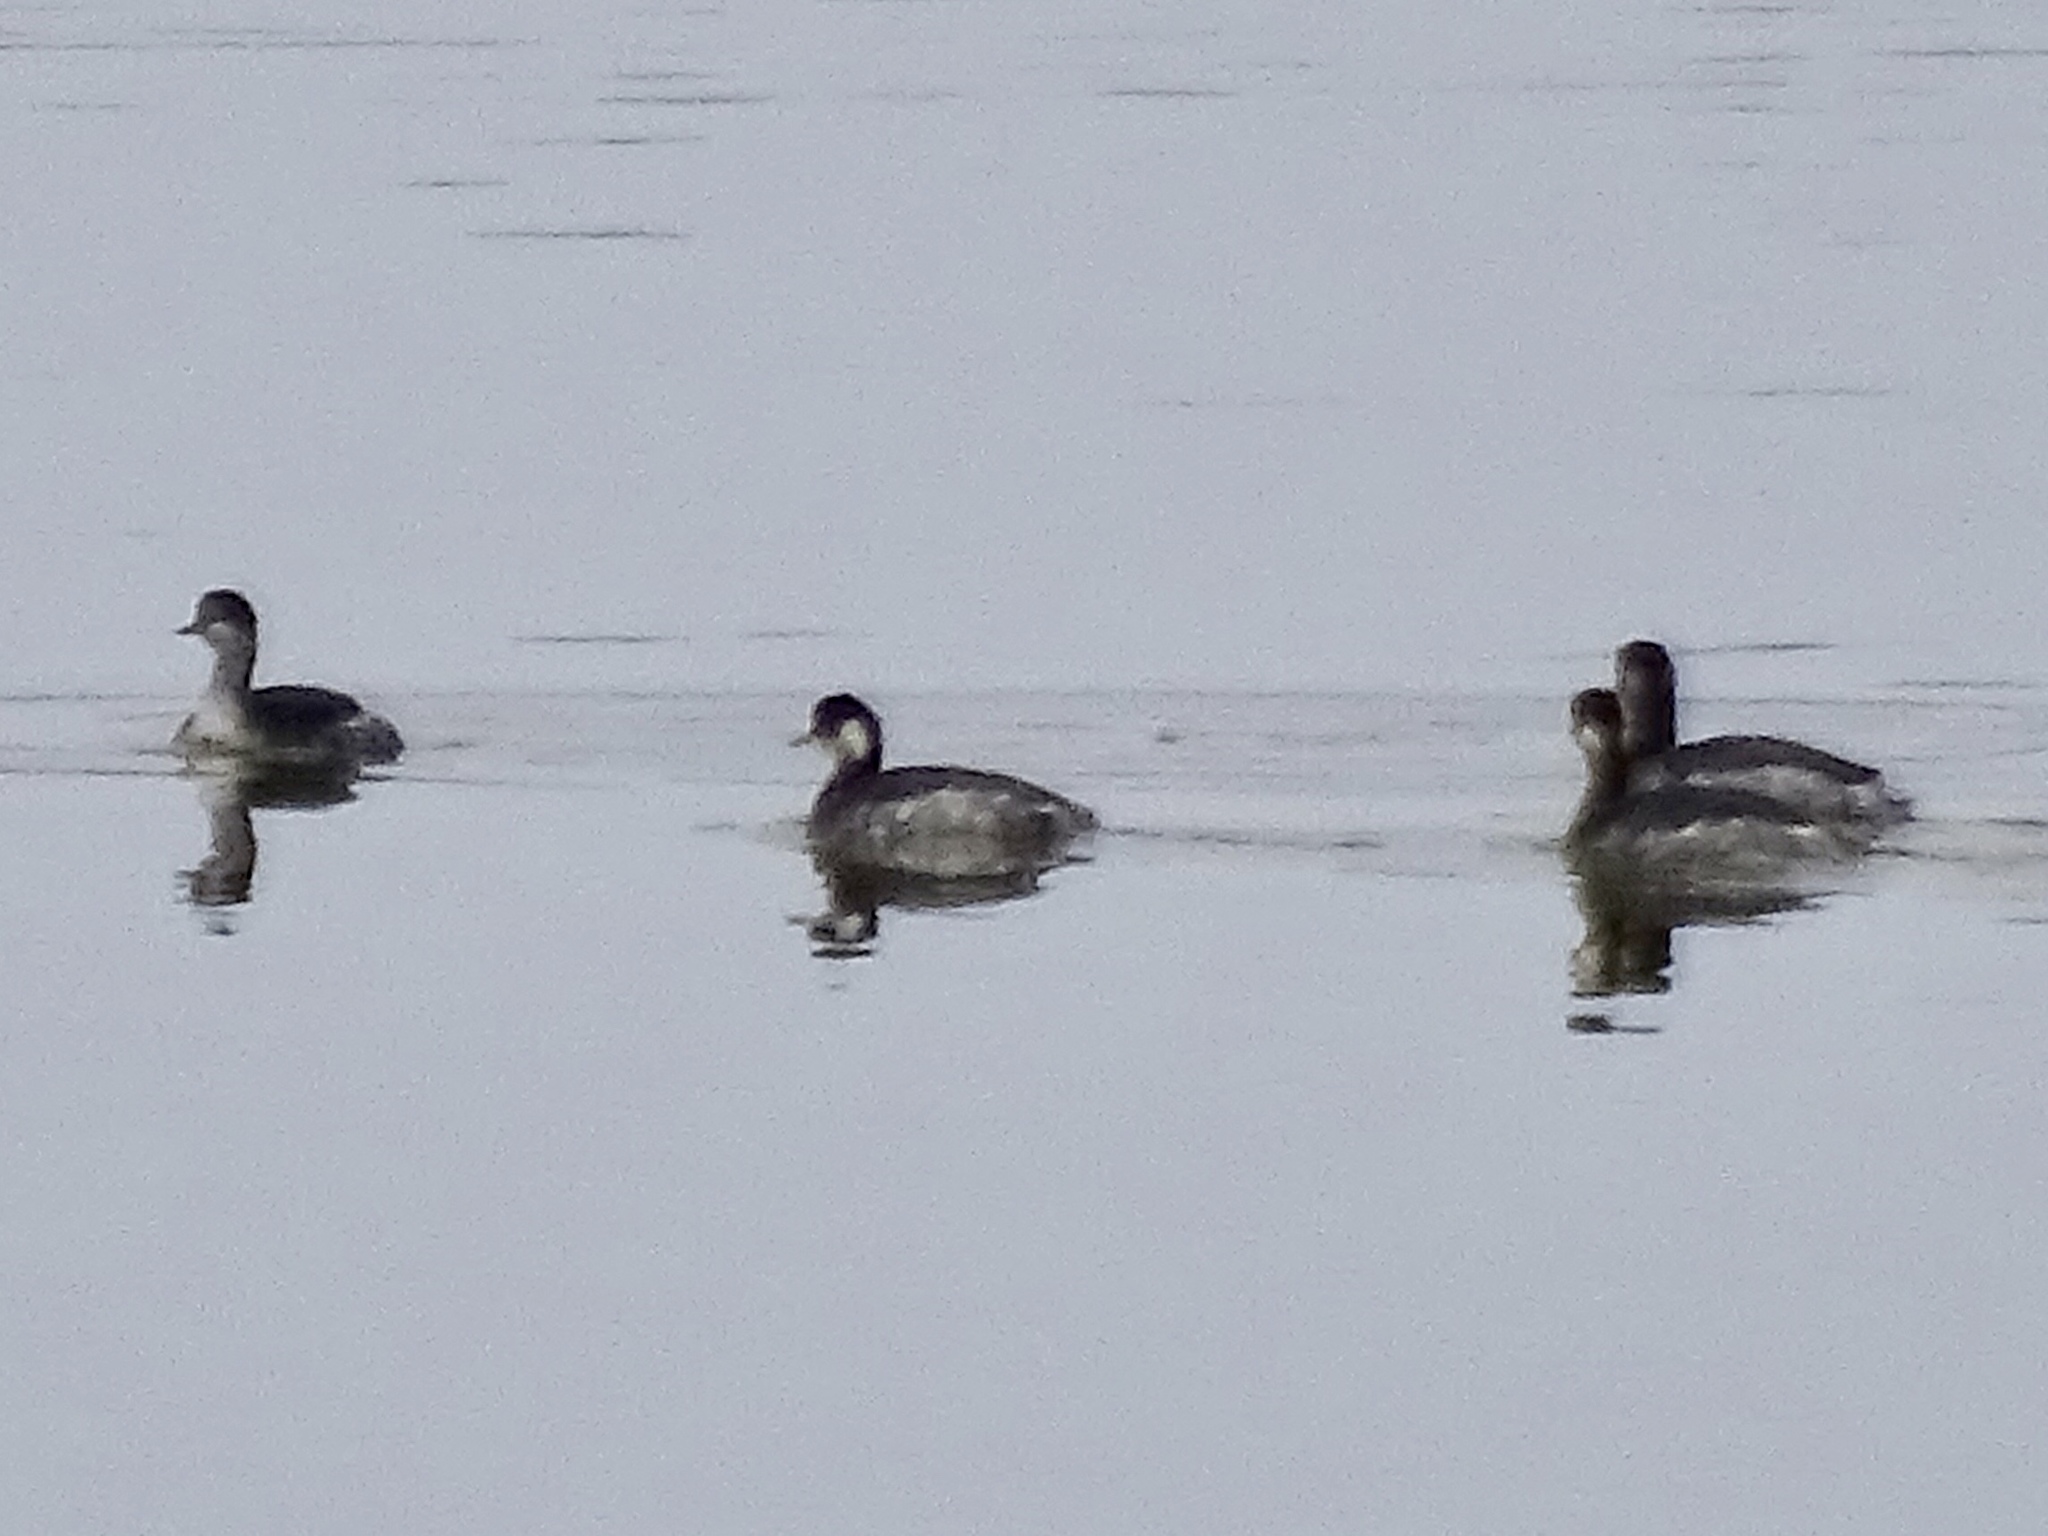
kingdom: Animalia
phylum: Chordata
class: Aves
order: Podicipediformes
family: Podicipedidae
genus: Podiceps
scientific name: Podiceps nigricollis
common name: Black-necked grebe
